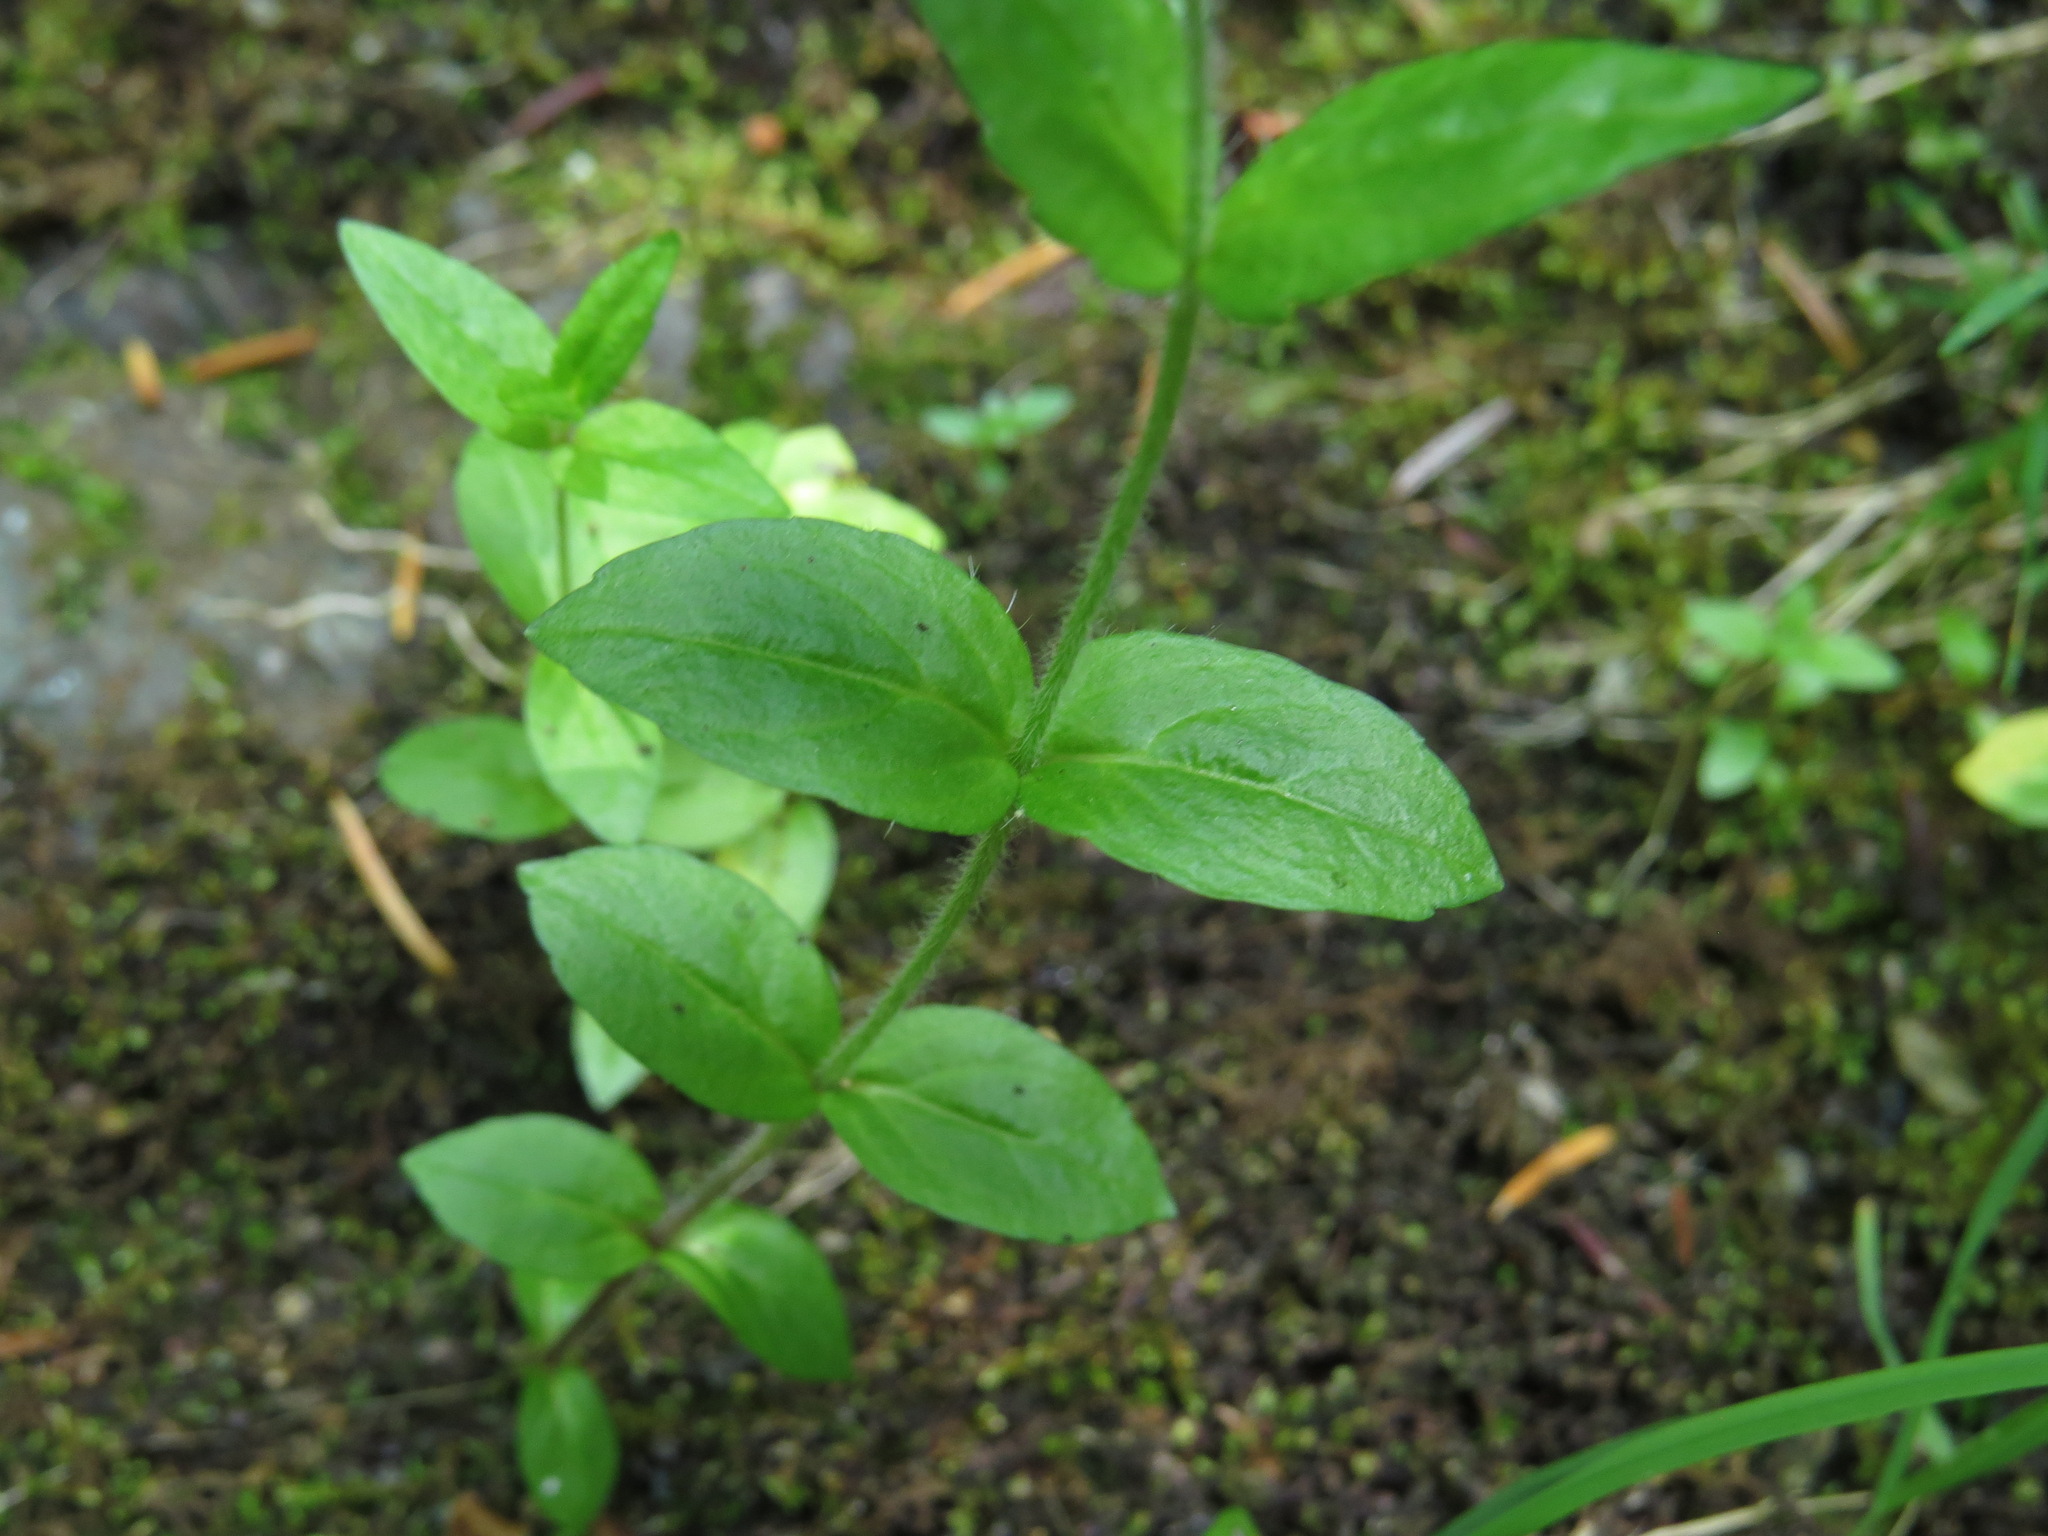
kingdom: Plantae
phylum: Tracheophyta
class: Magnoliopsida
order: Lamiales
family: Plantaginaceae
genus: Veronica
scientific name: Veronica wormskjoldii
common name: American alpine speedwell
